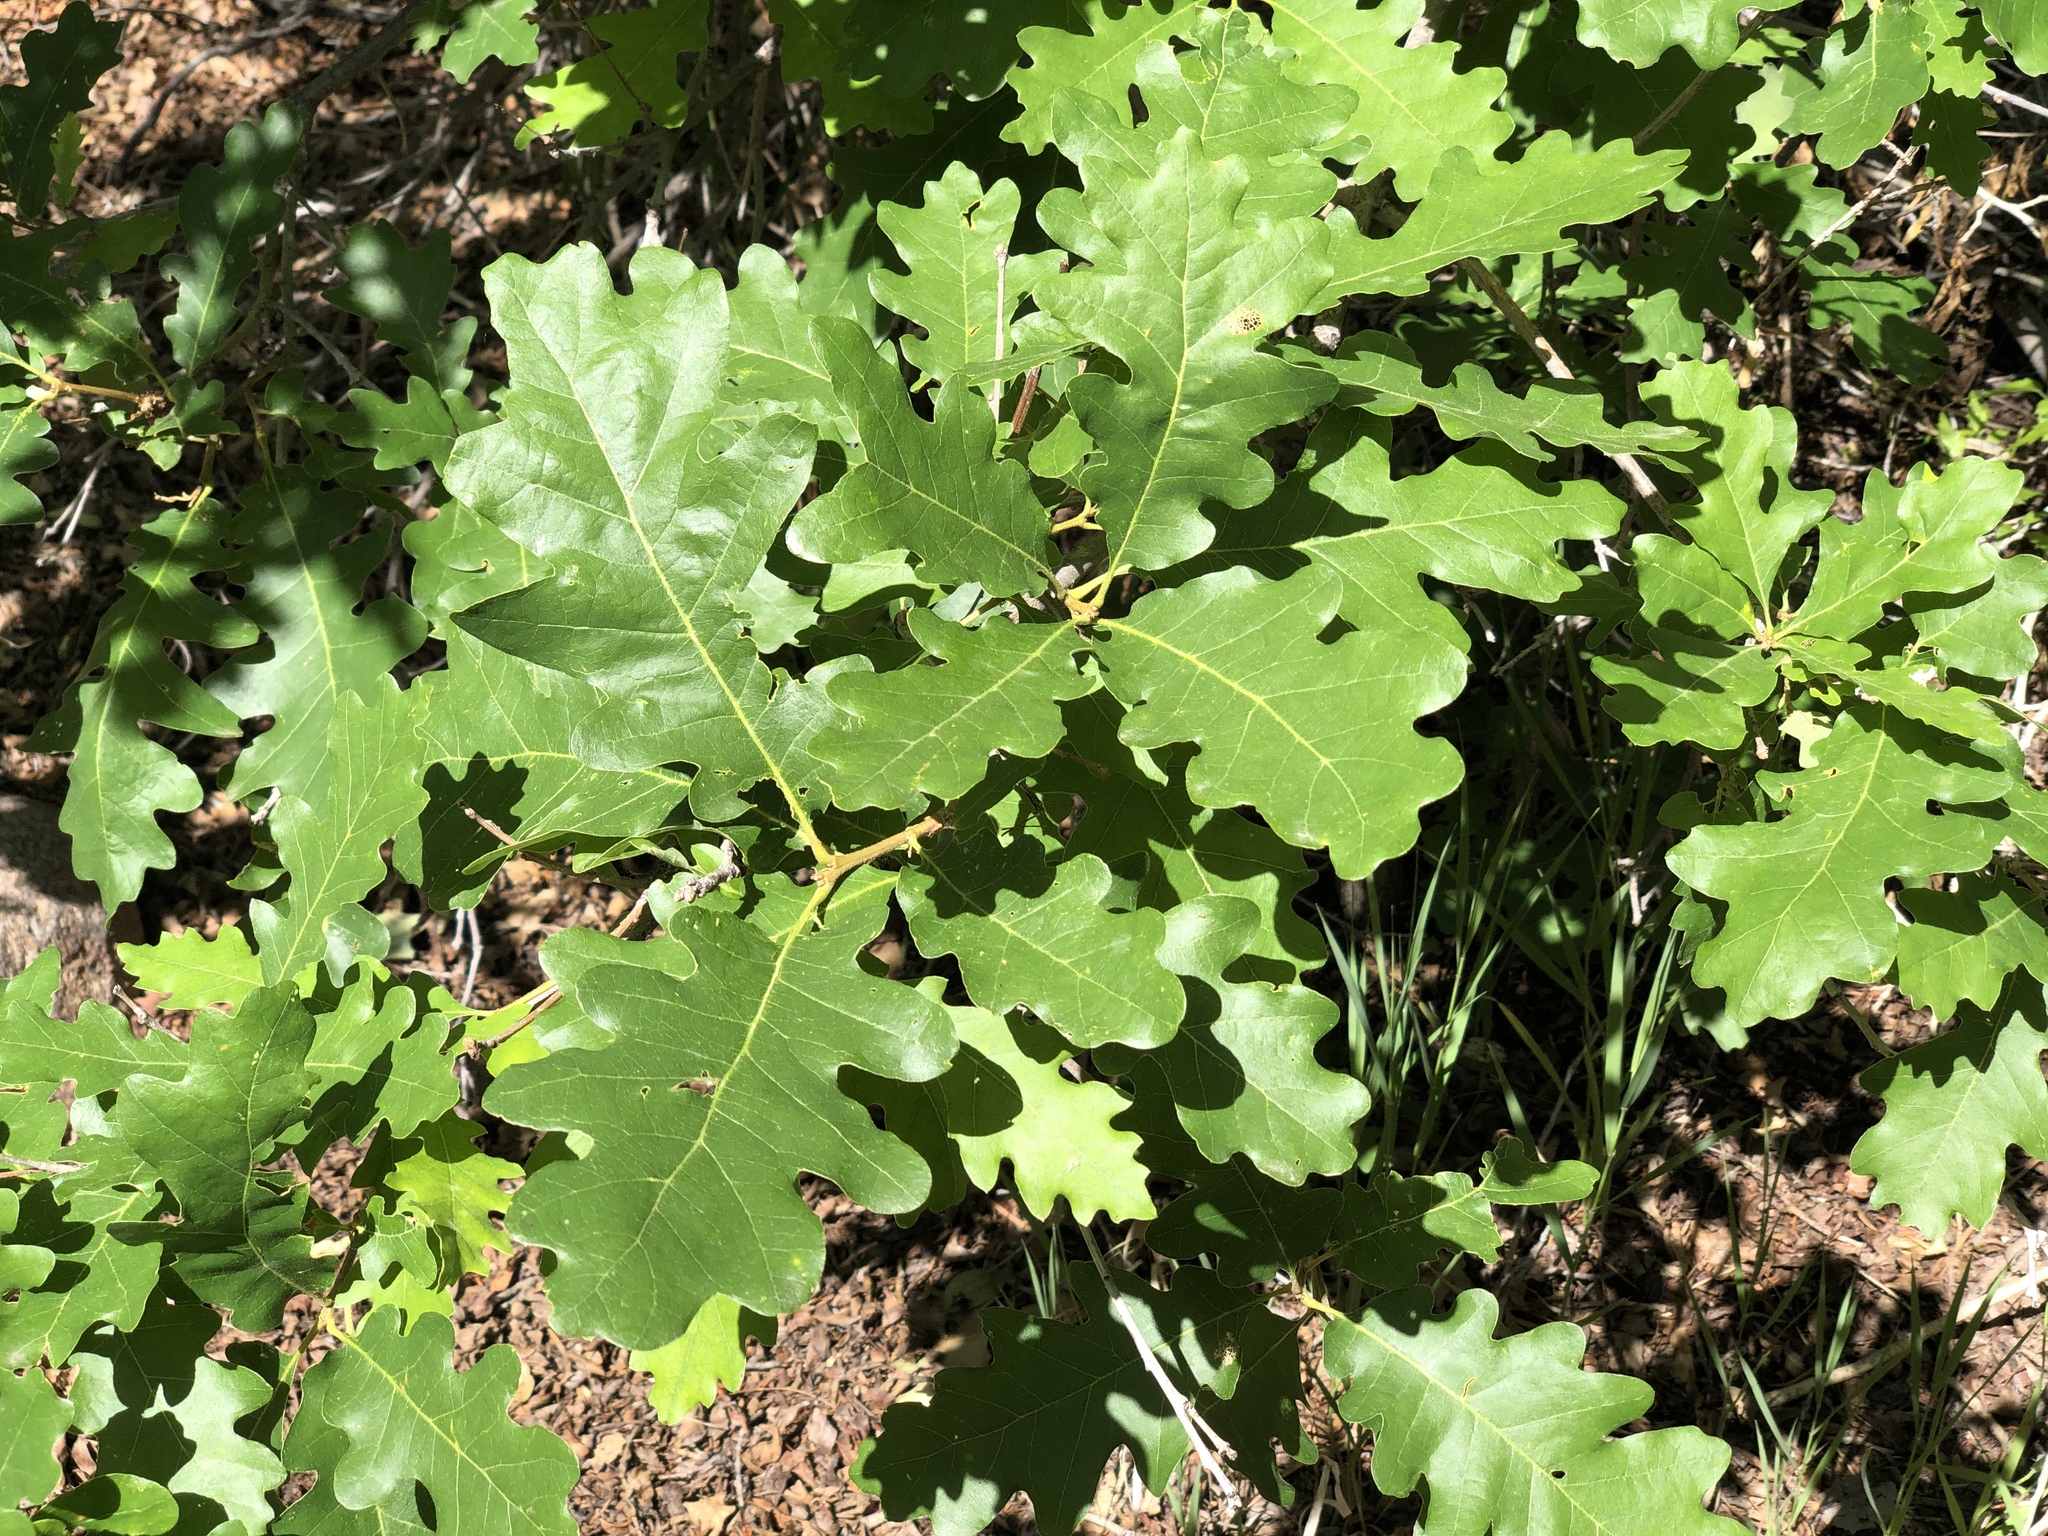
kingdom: Plantae
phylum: Tracheophyta
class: Magnoliopsida
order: Fagales
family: Fagaceae
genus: Quercus
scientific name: Quercus gambelii
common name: Gambel oak
